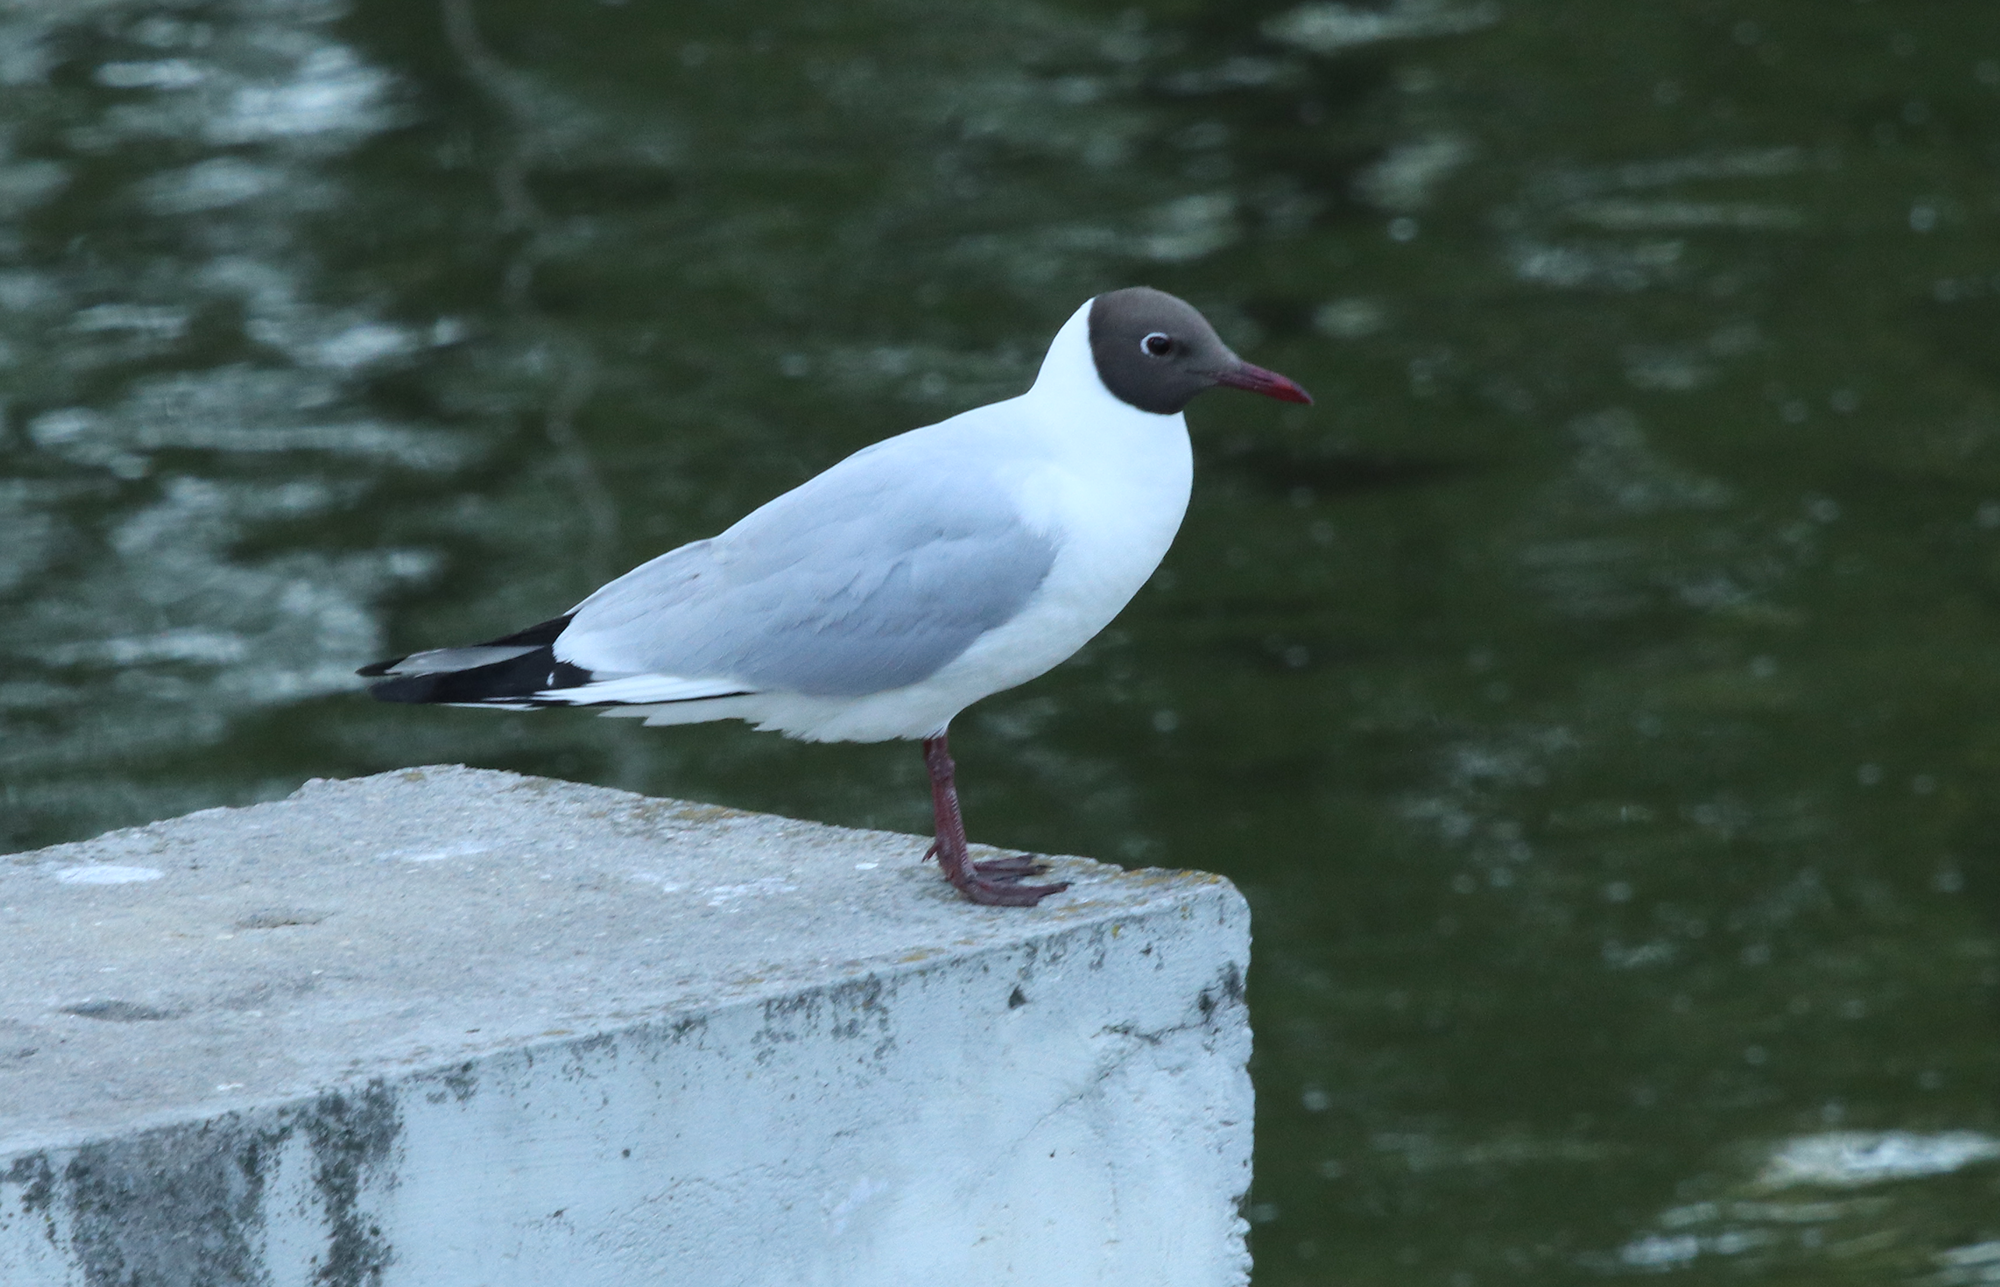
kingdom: Animalia
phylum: Chordata
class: Aves
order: Charadriiformes
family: Laridae
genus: Chroicocephalus
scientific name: Chroicocephalus ridibundus
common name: Black-headed gull
